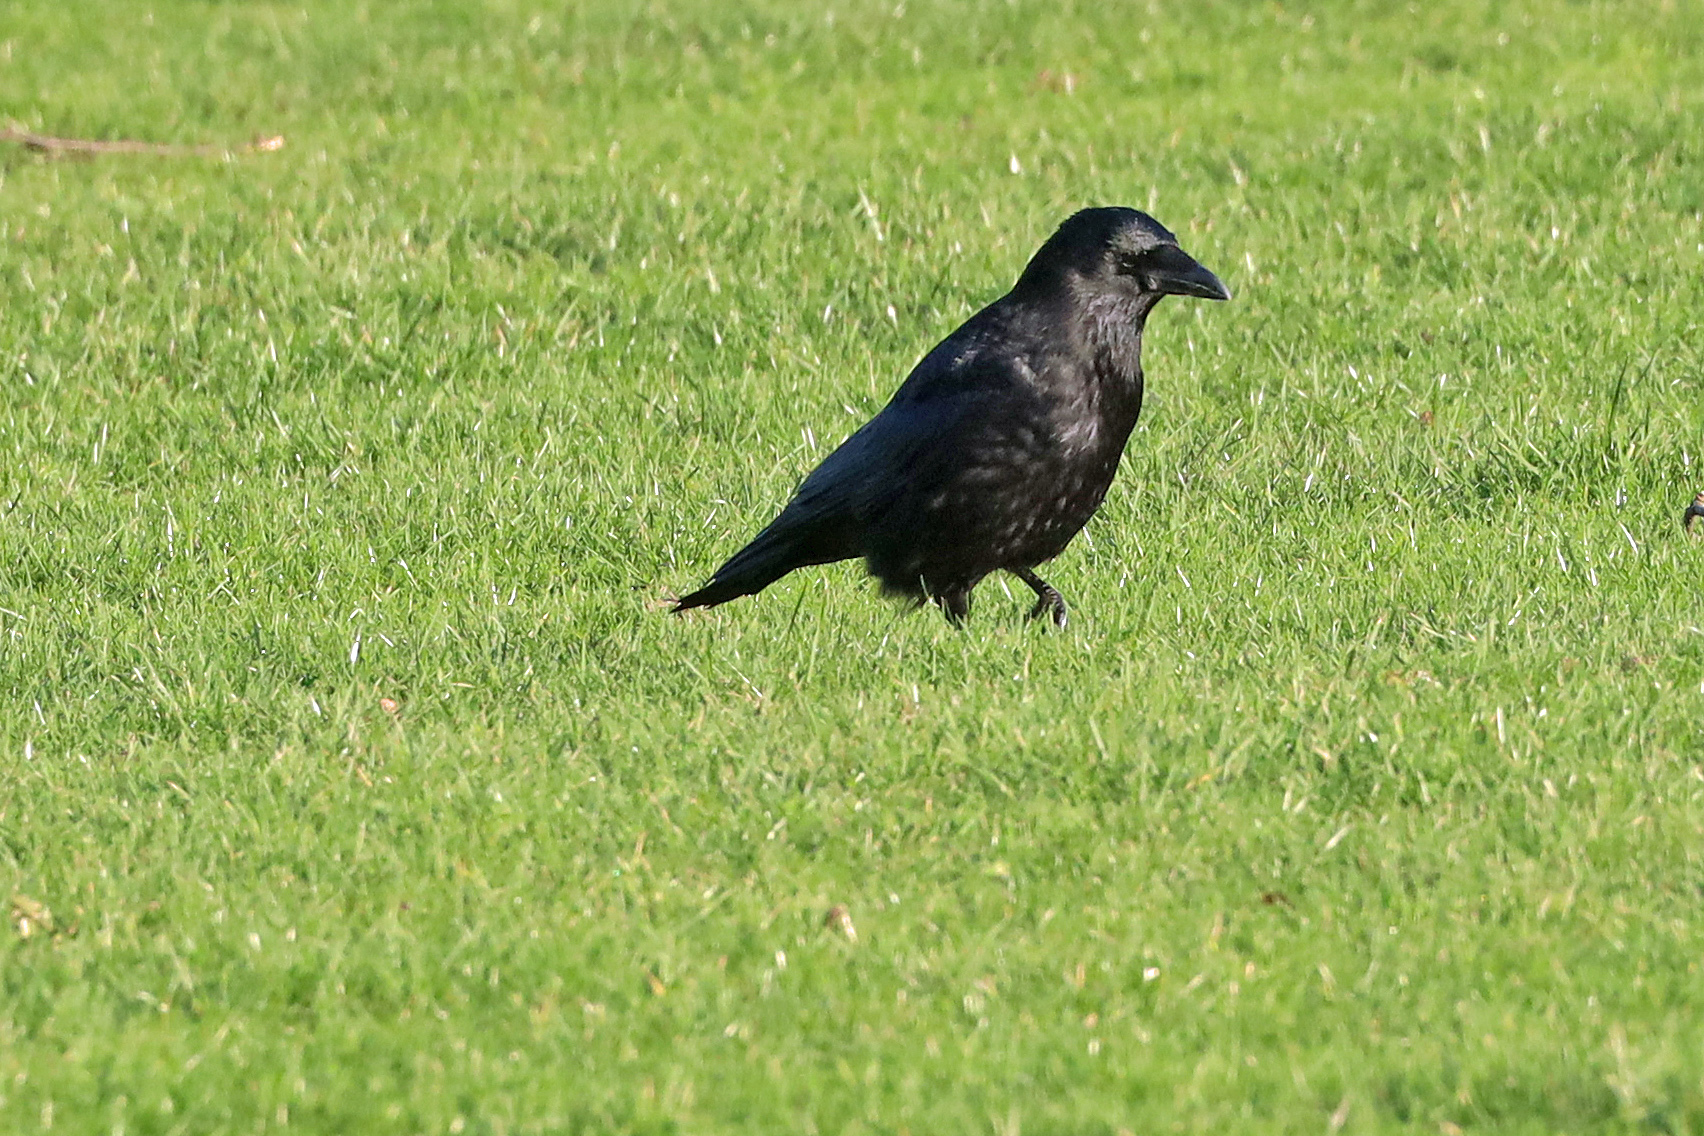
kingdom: Animalia
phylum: Chordata
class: Aves
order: Passeriformes
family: Corvidae
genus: Corvus
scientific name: Corvus corone
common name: Carrion crow
